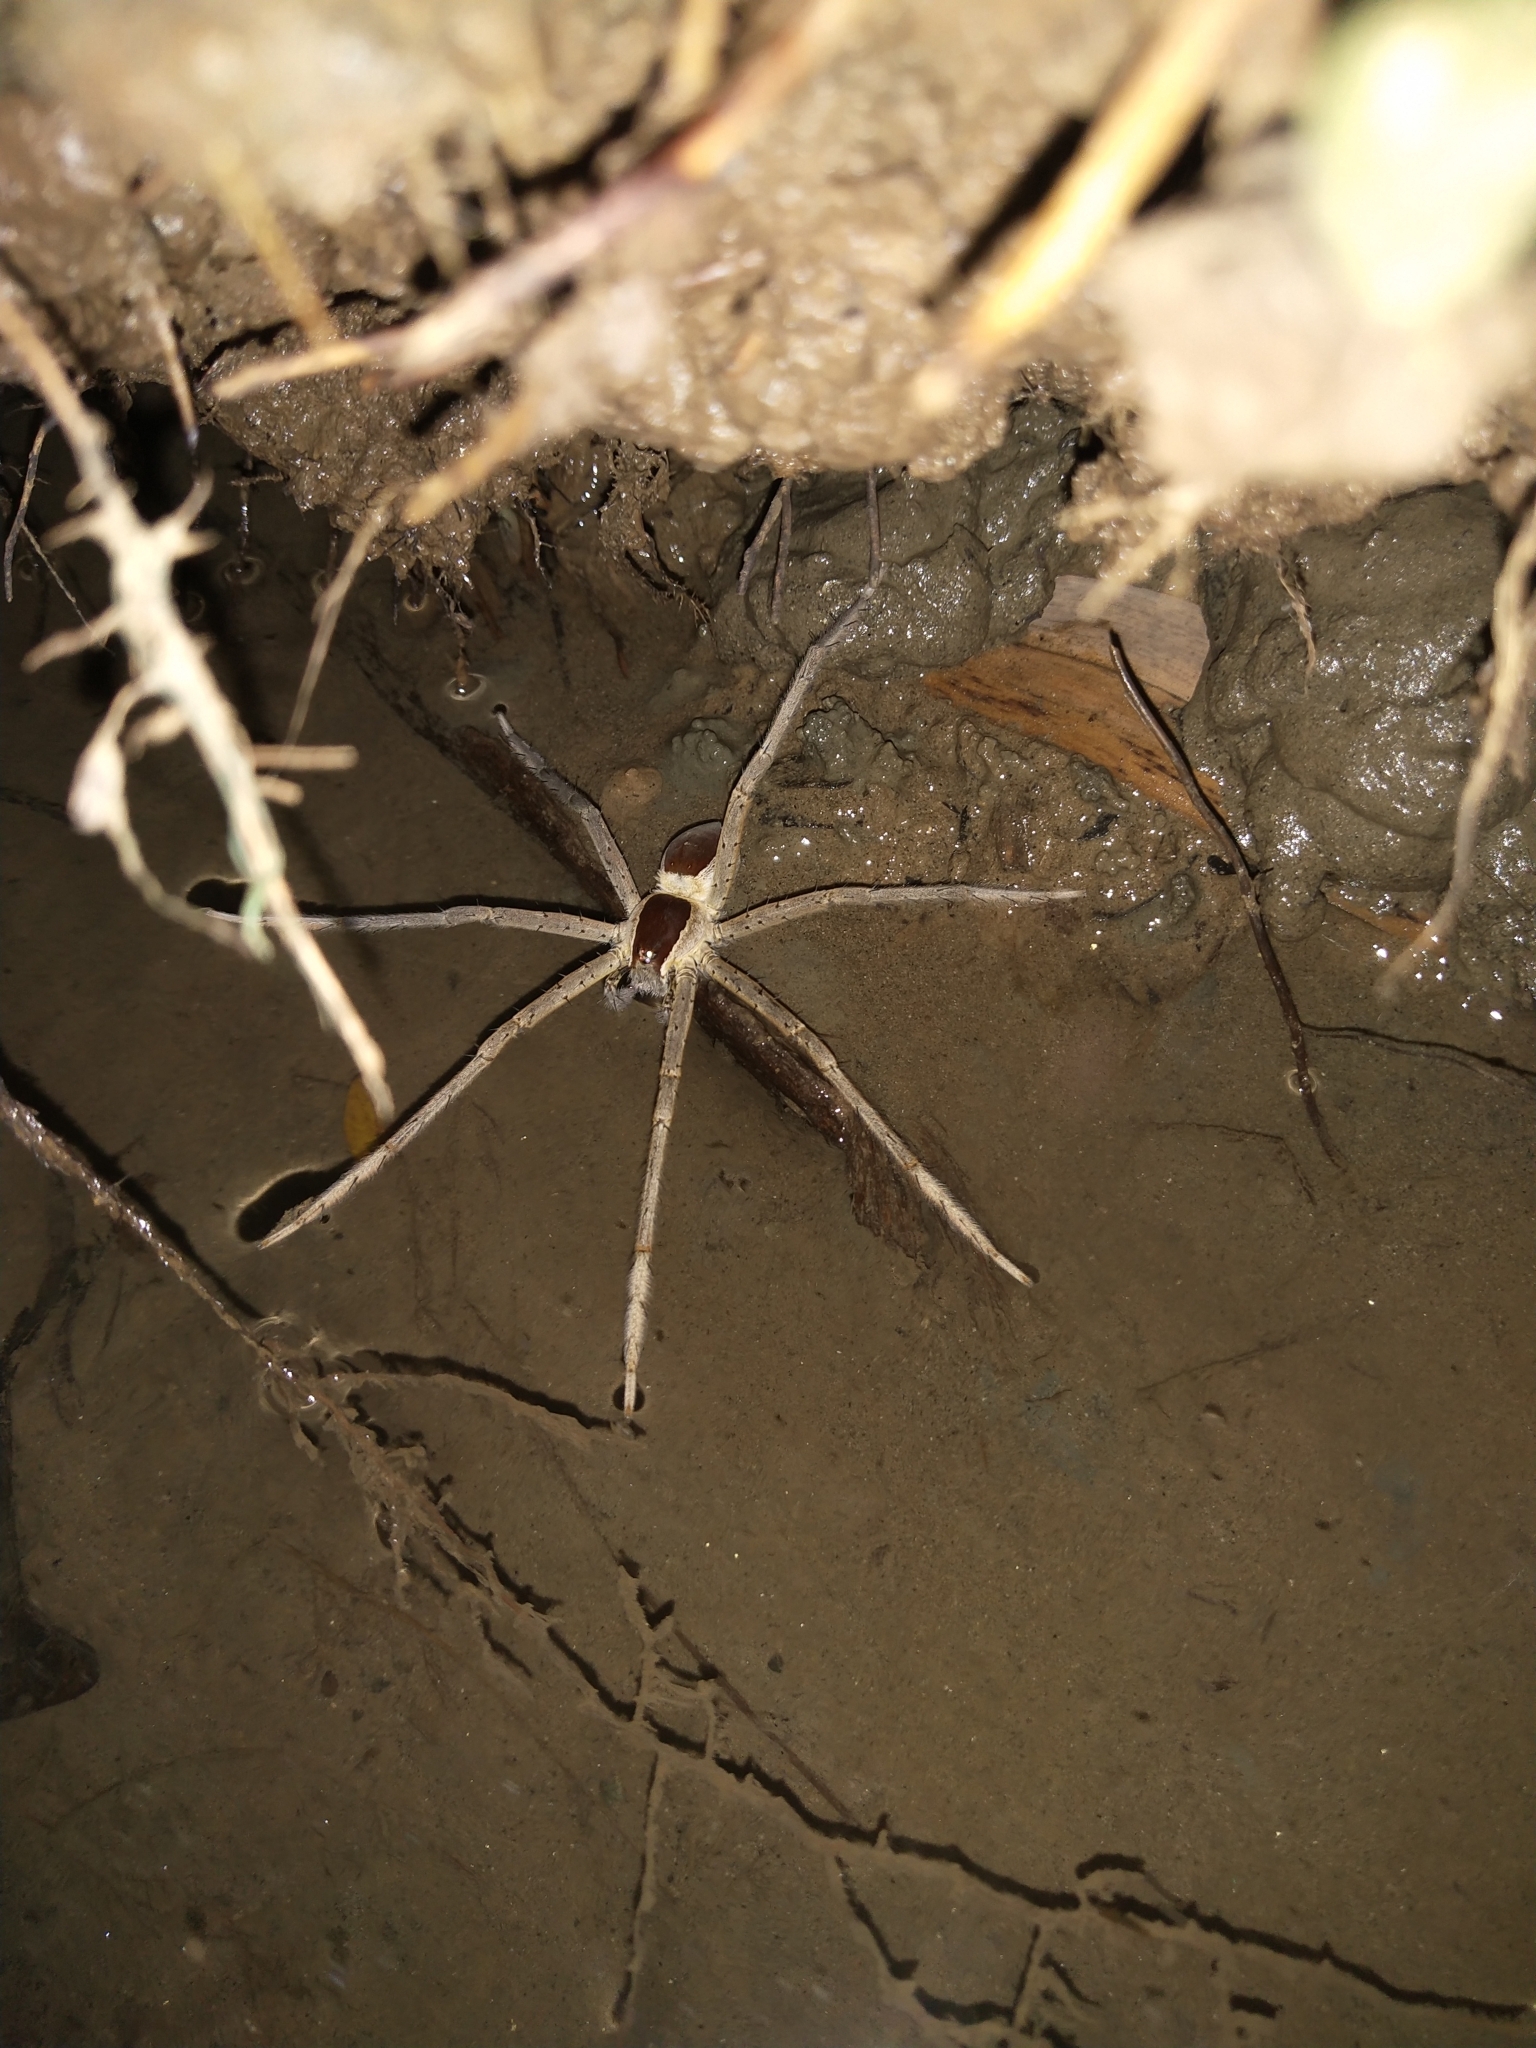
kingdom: Animalia
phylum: Arthropoda
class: Arachnida
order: Araneae
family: Pisauridae
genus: Nilus
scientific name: Nilus albocinctus
